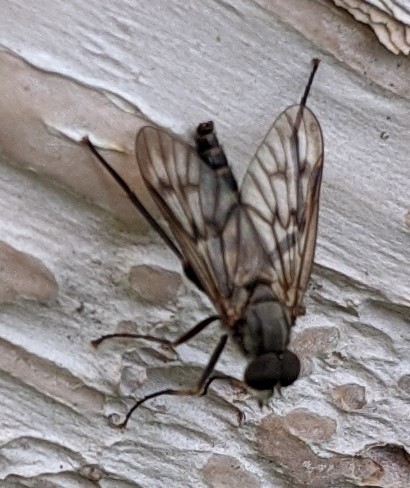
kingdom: Animalia
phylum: Arthropoda
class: Insecta
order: Diptera
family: Rhagionidae
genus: Rhagio
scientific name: Rhagio mystaceus
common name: Common snipe fly
